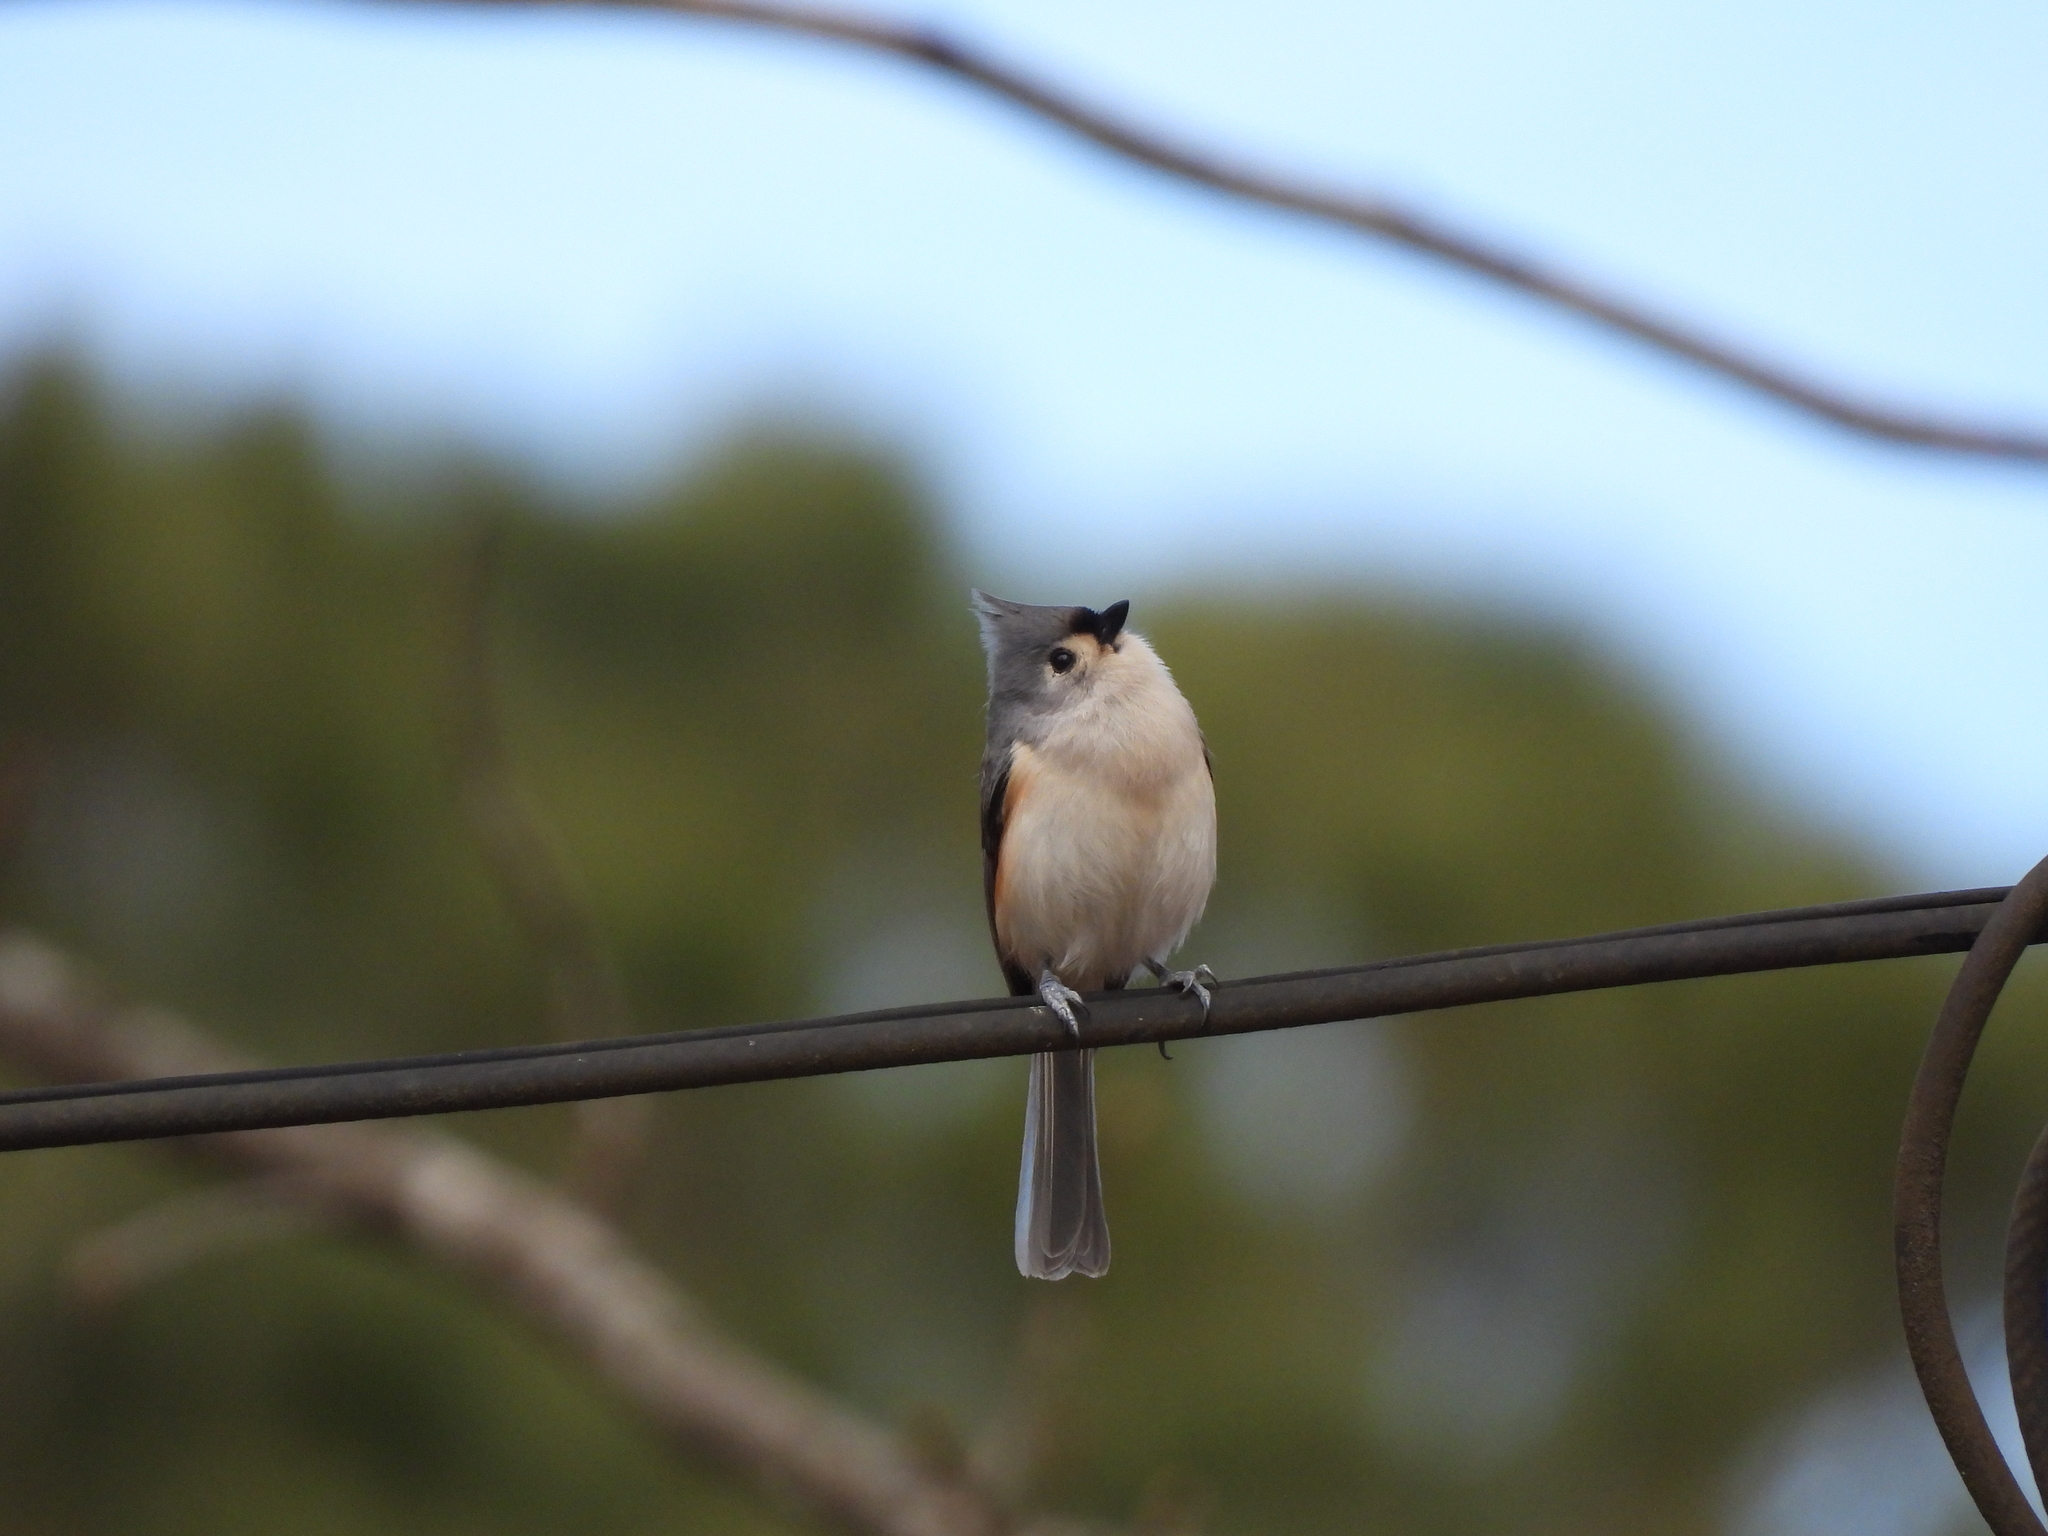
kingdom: Animalia
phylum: Chordata
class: Aves
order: Passeriformes
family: Paridae
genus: Baeolophus
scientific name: Baeolophus bicolor
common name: Tufted titmouse
